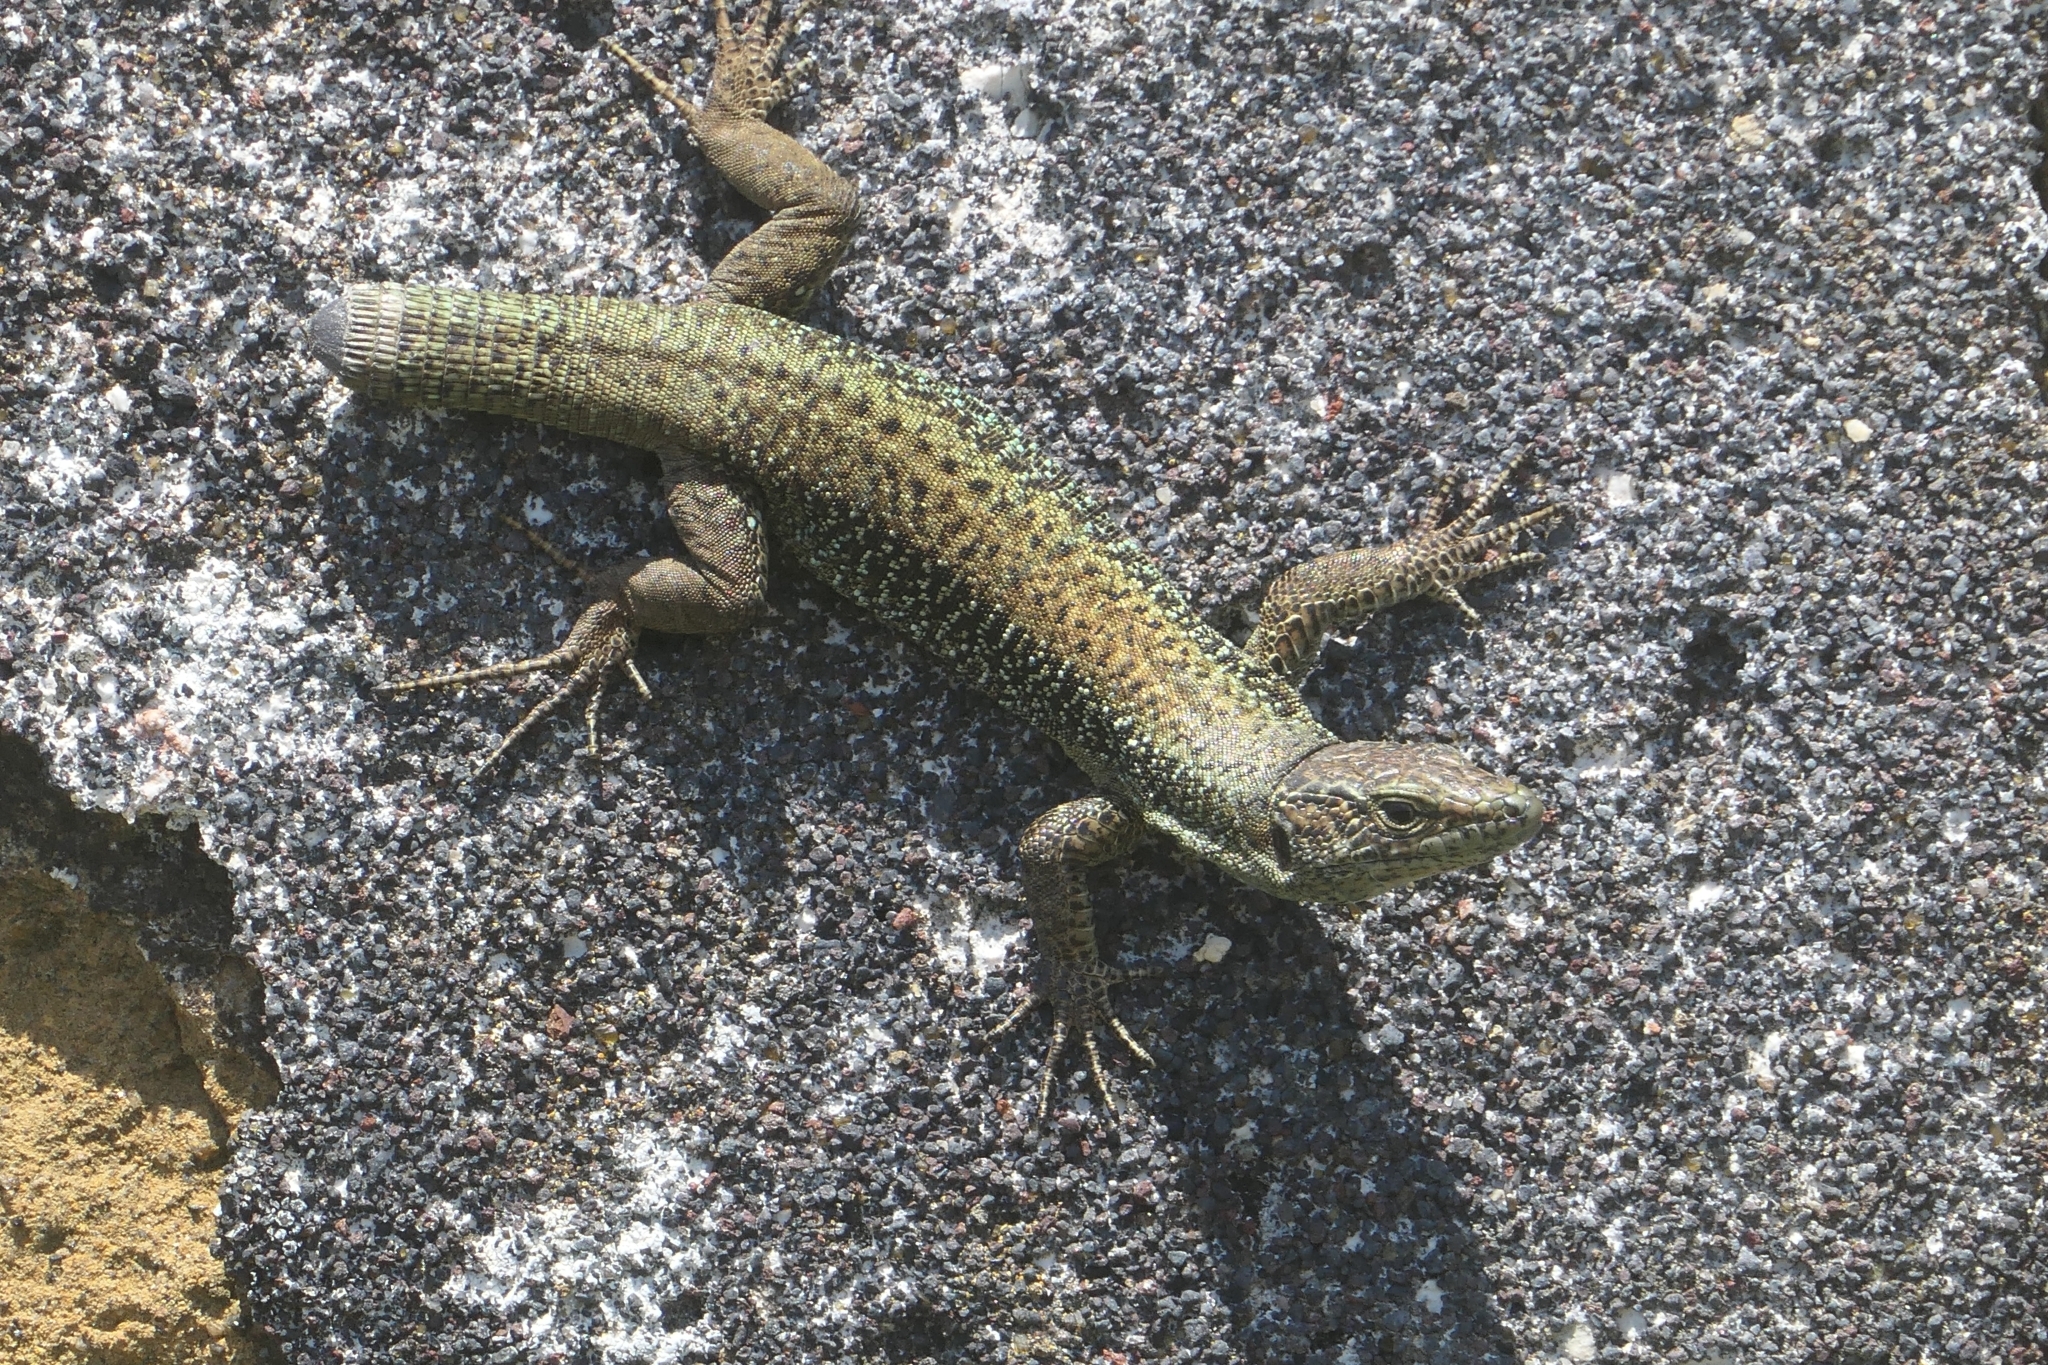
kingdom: Animalia
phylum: Chordata
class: Squamata
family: Lacertidae
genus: Teira
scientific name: Teira dugesii
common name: Madeira lizard
